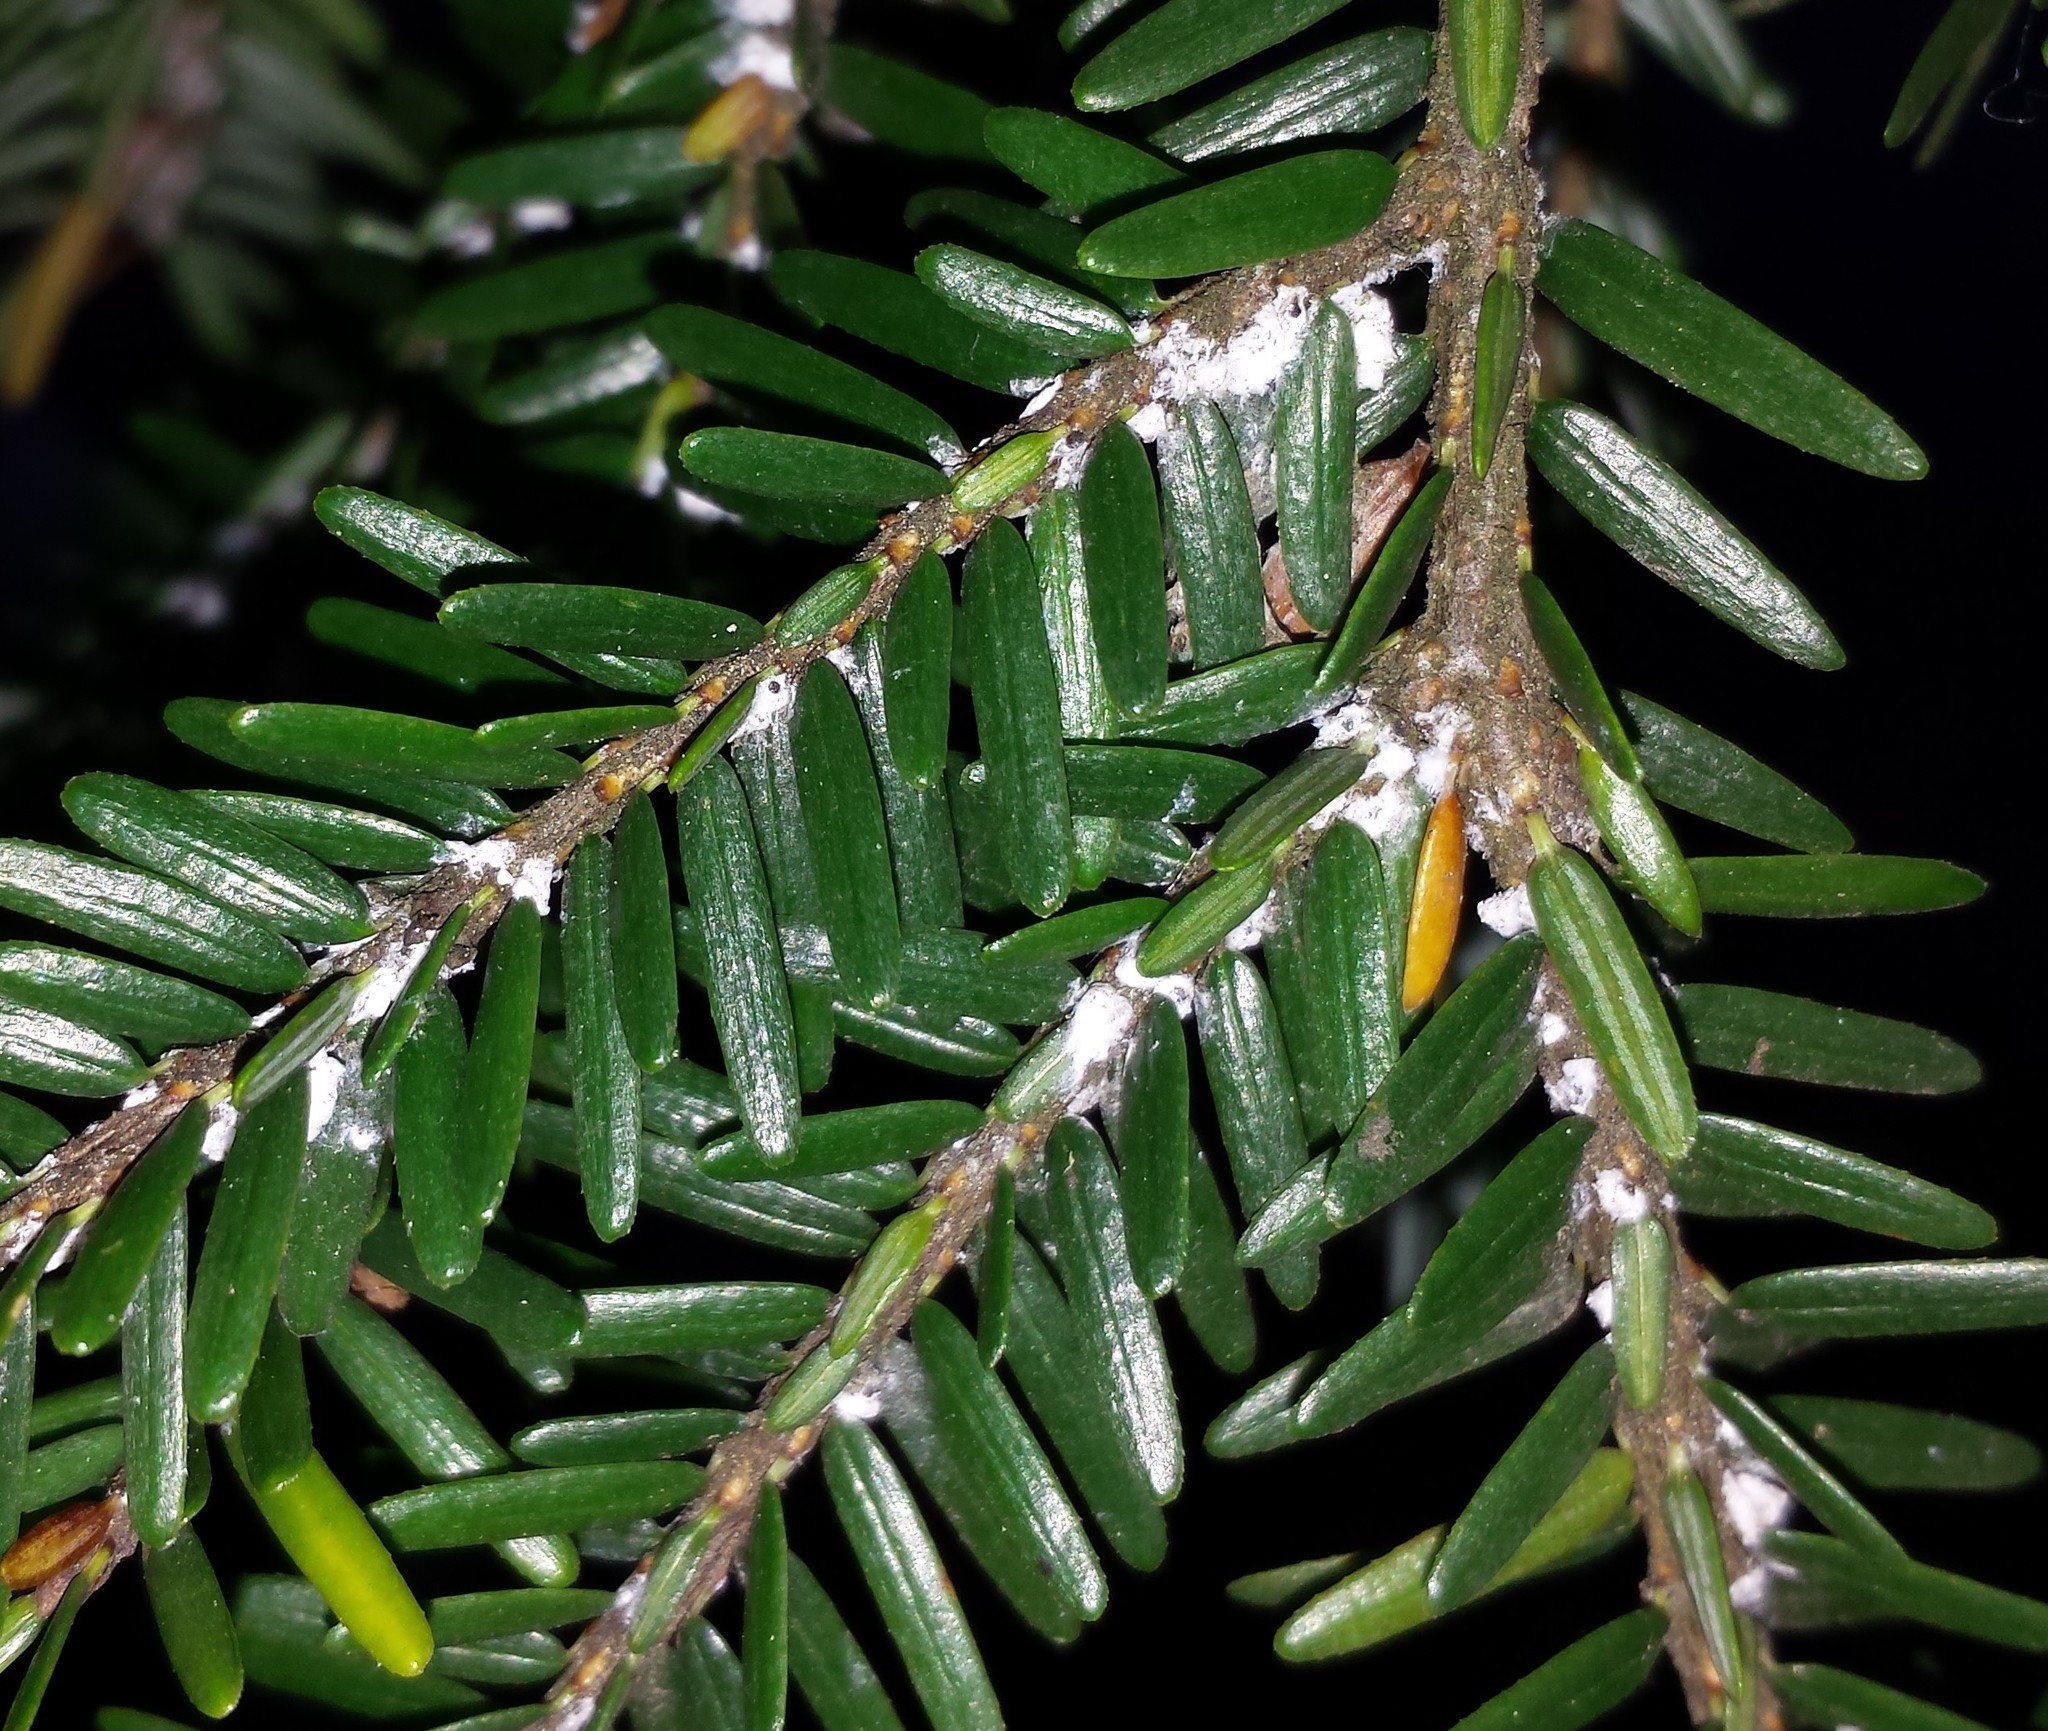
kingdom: Animalia
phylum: Arthropoda
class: Insecta
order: Hemiptera
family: Adelgidae
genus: Adelges
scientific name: Adelges tsugae
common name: Hemlock woolly adelgid
